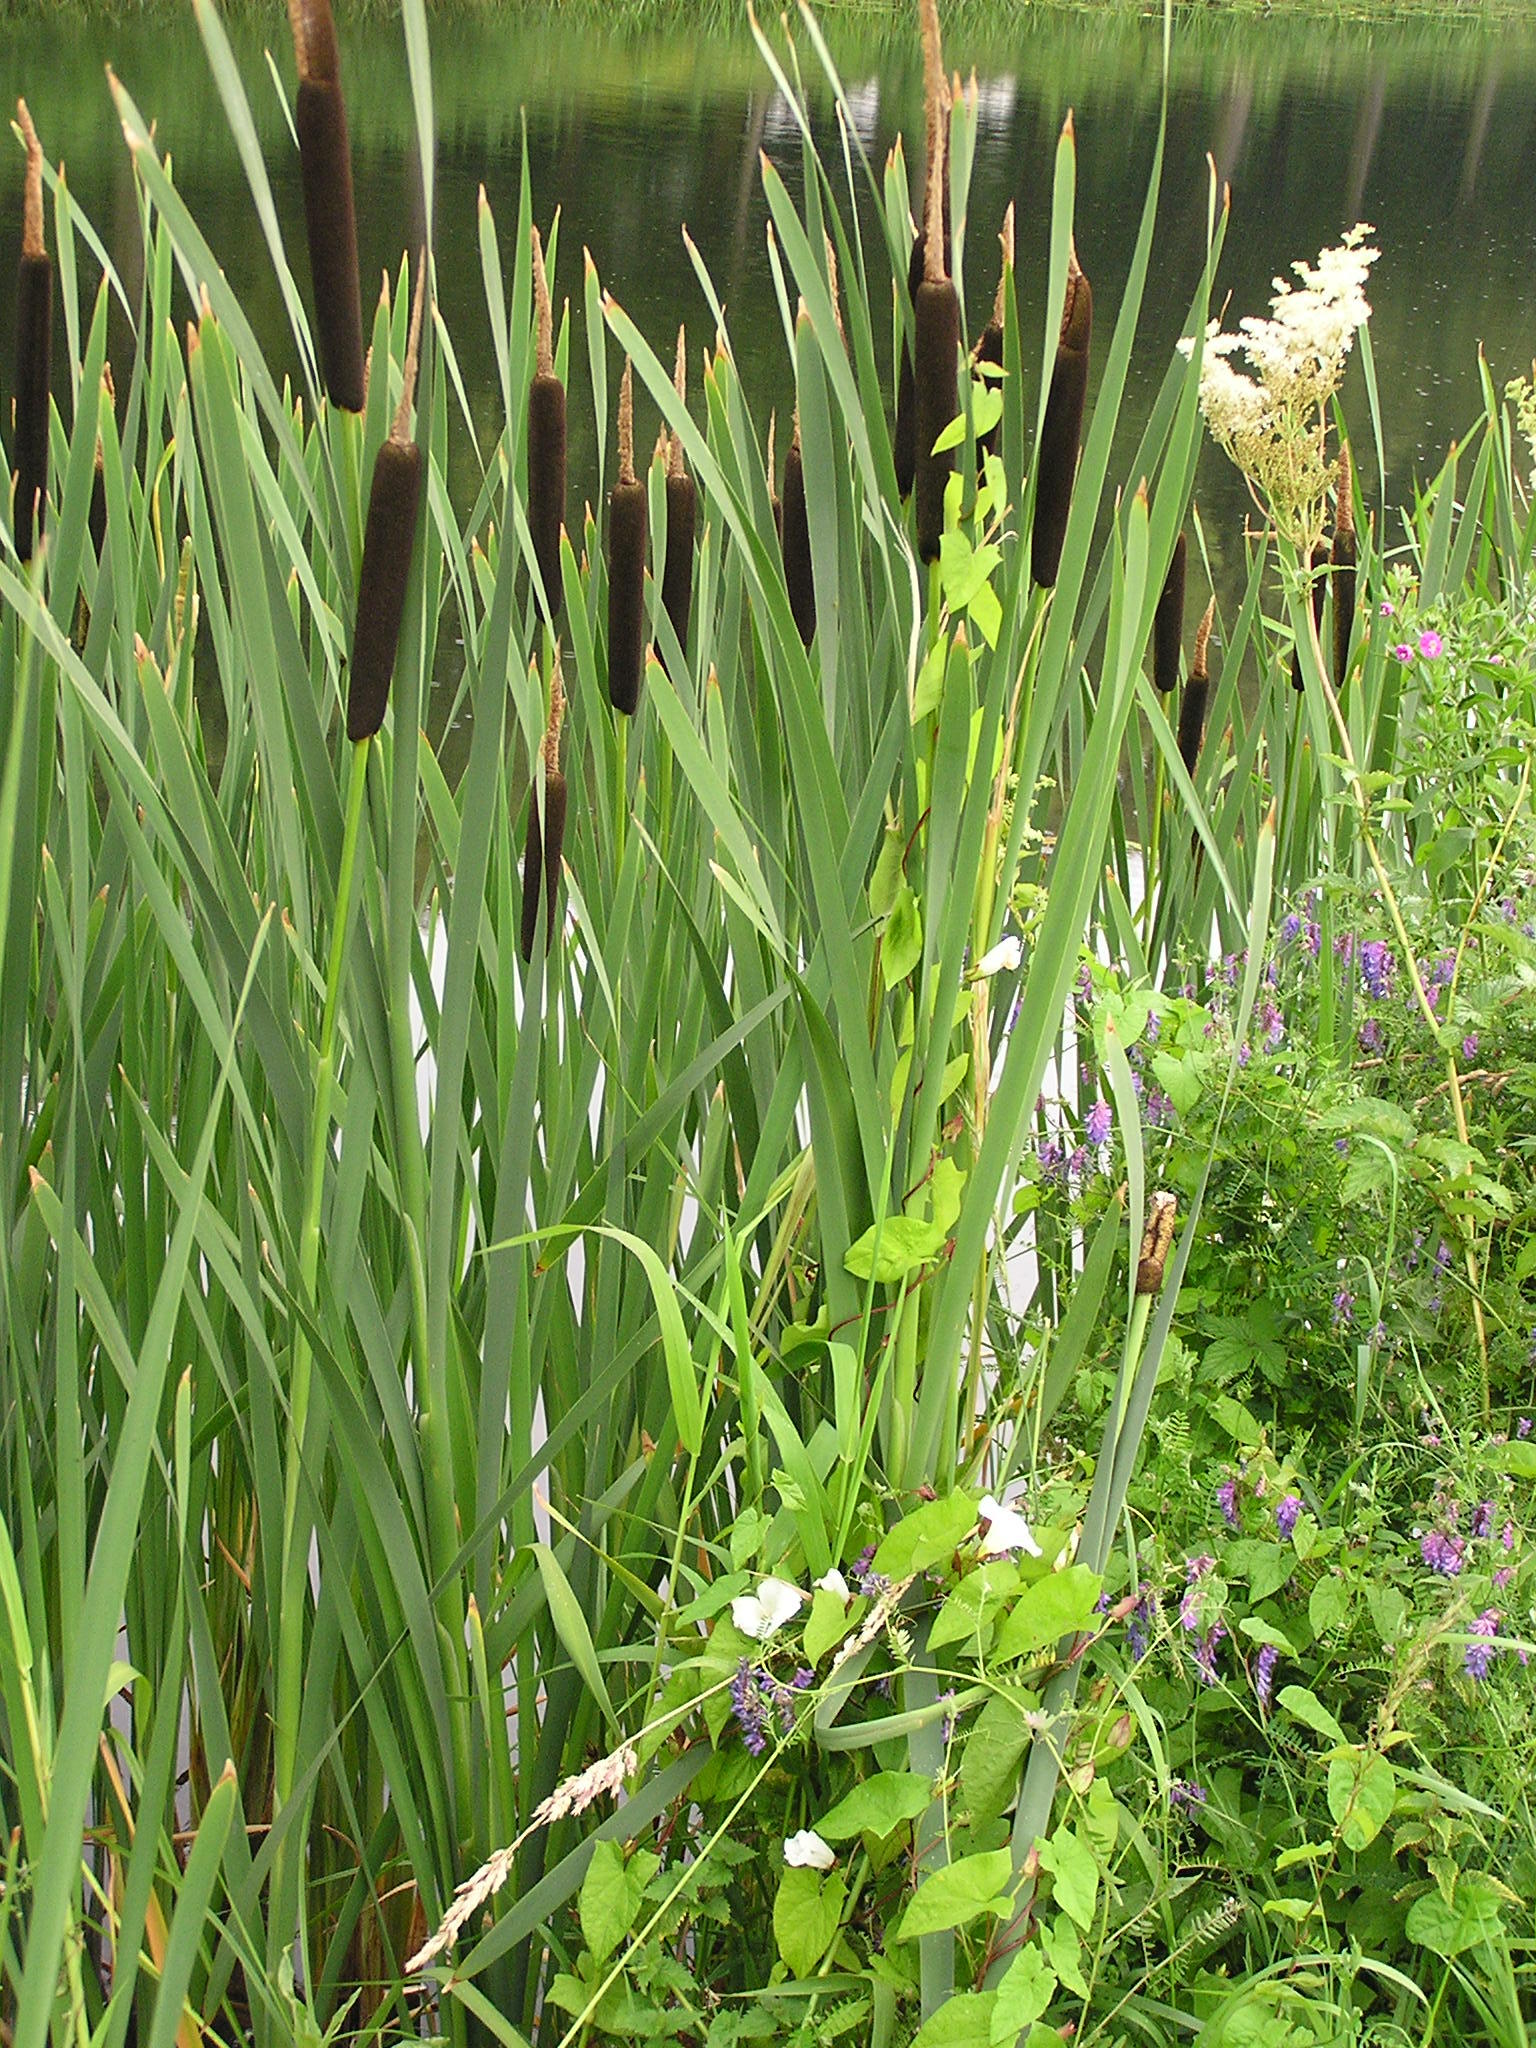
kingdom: Plantae
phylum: Tracheophyta
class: Liliopsida
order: Poales
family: Typhaceae
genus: Typha
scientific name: Typha latifolia
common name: Broadleaf cattail
